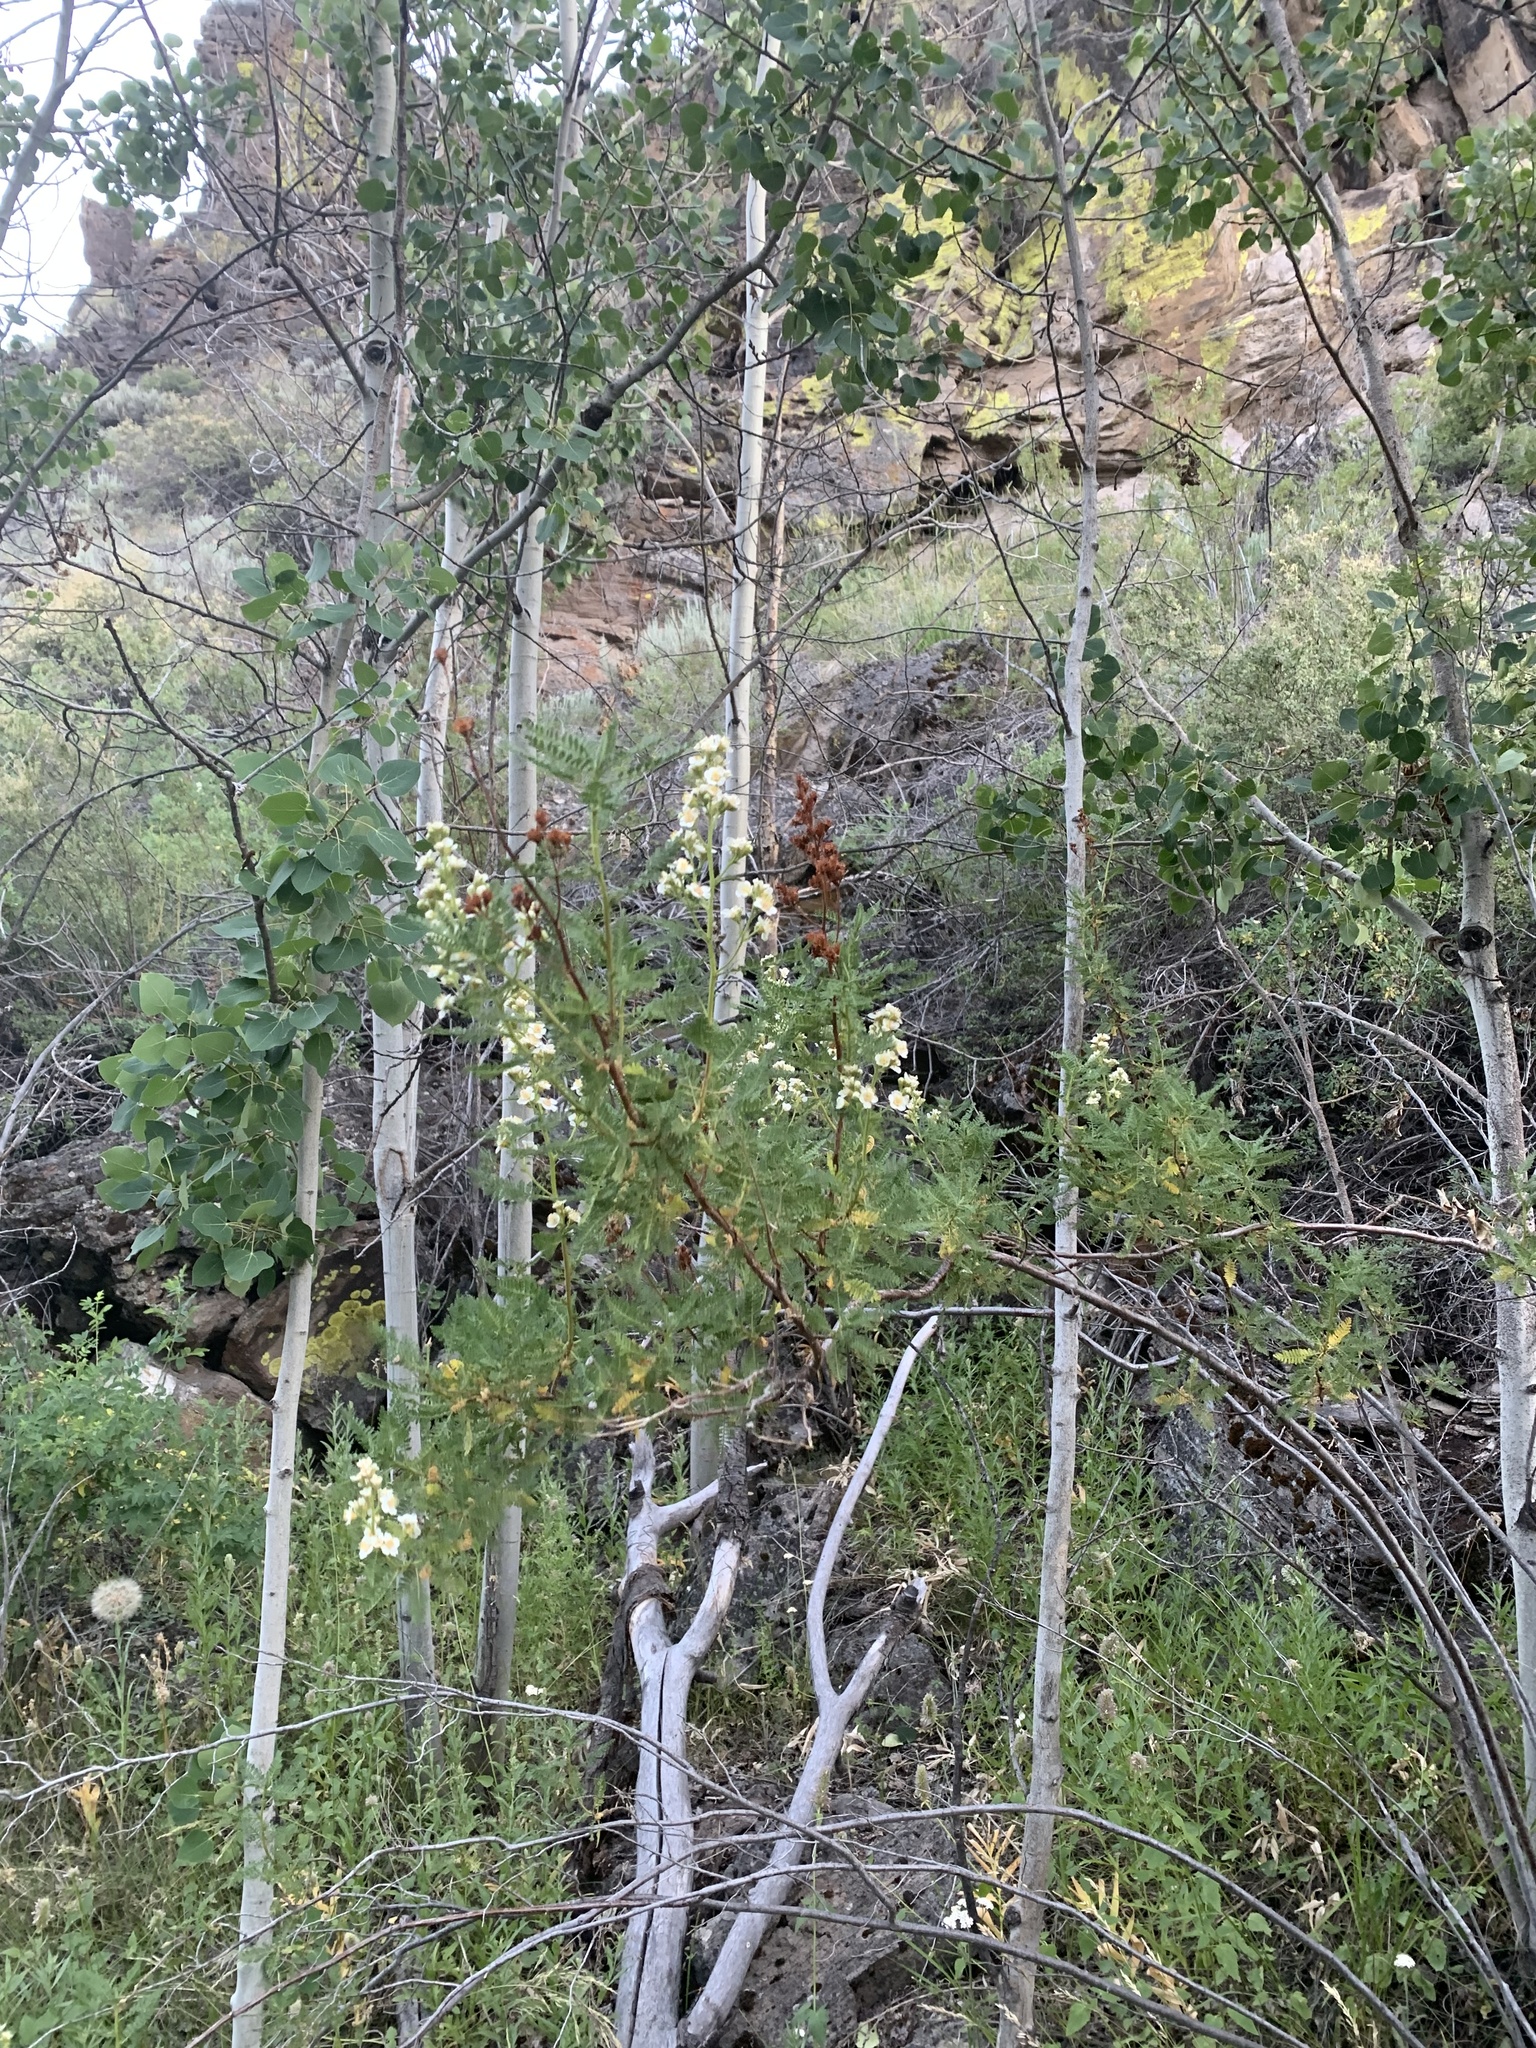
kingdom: Plantae
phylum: Tracheophyta
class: Magnoliopsida
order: Rosales
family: Rosaceae
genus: Chamaebatiaria
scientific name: Chamaebatiaria millefolium
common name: Fernbush
